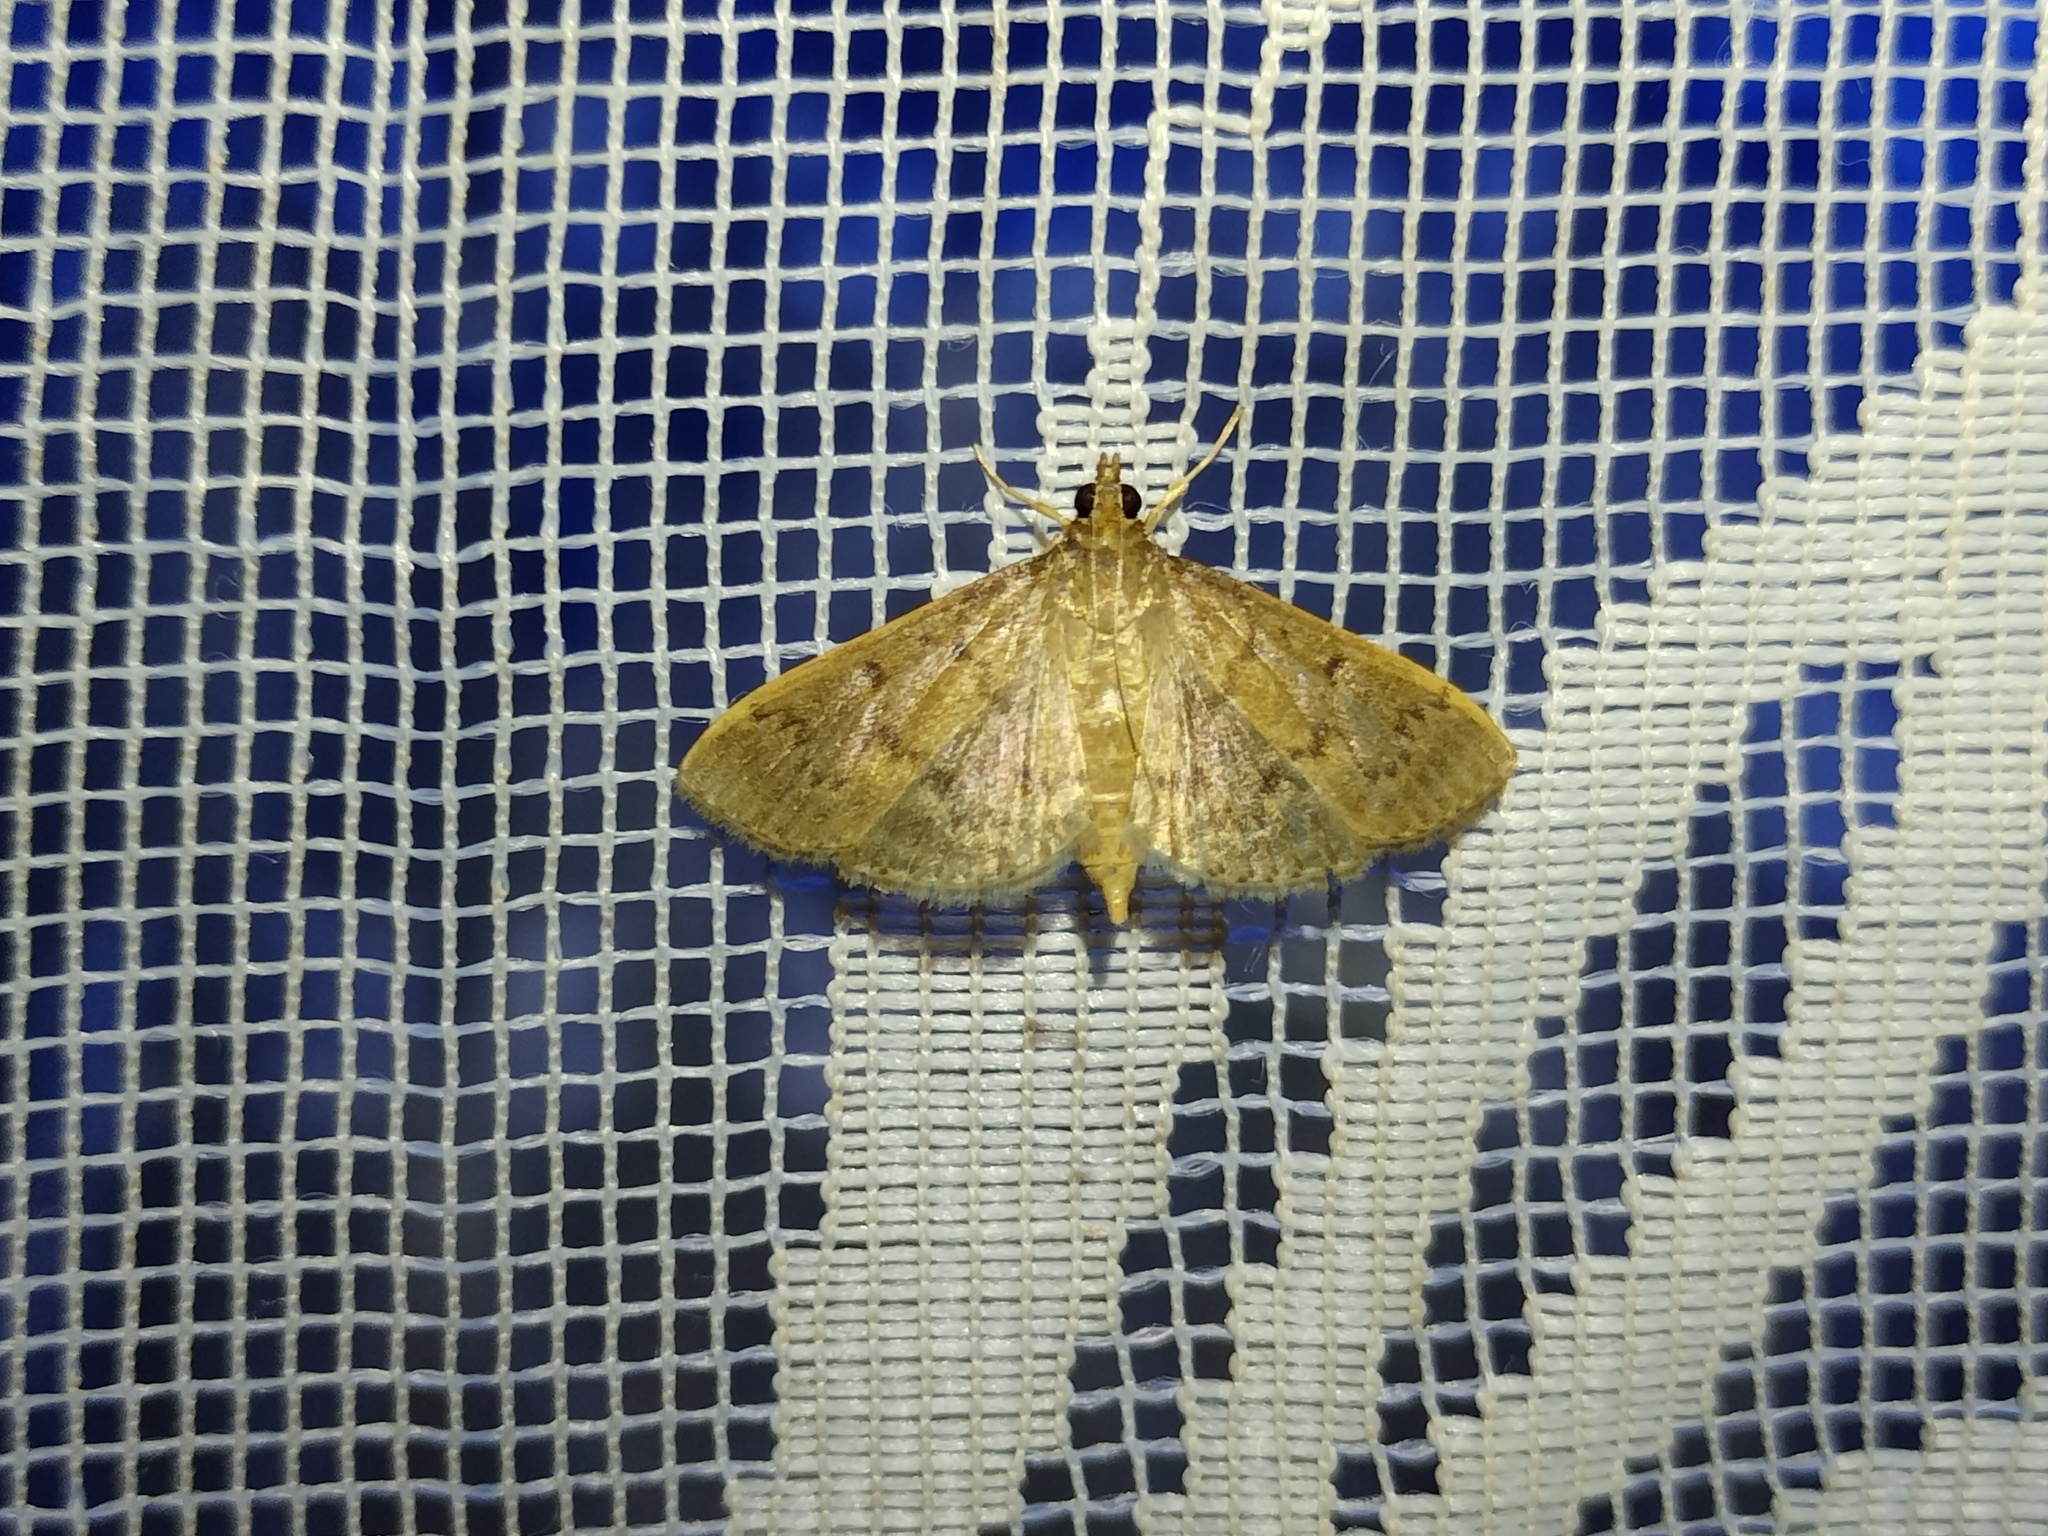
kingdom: Animalia
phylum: Arthropoda
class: Insecta
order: Lepidoptera
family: Crambidae
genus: Herpetogramma
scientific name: Herpetogramma licarsisalis
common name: Grass webworm
